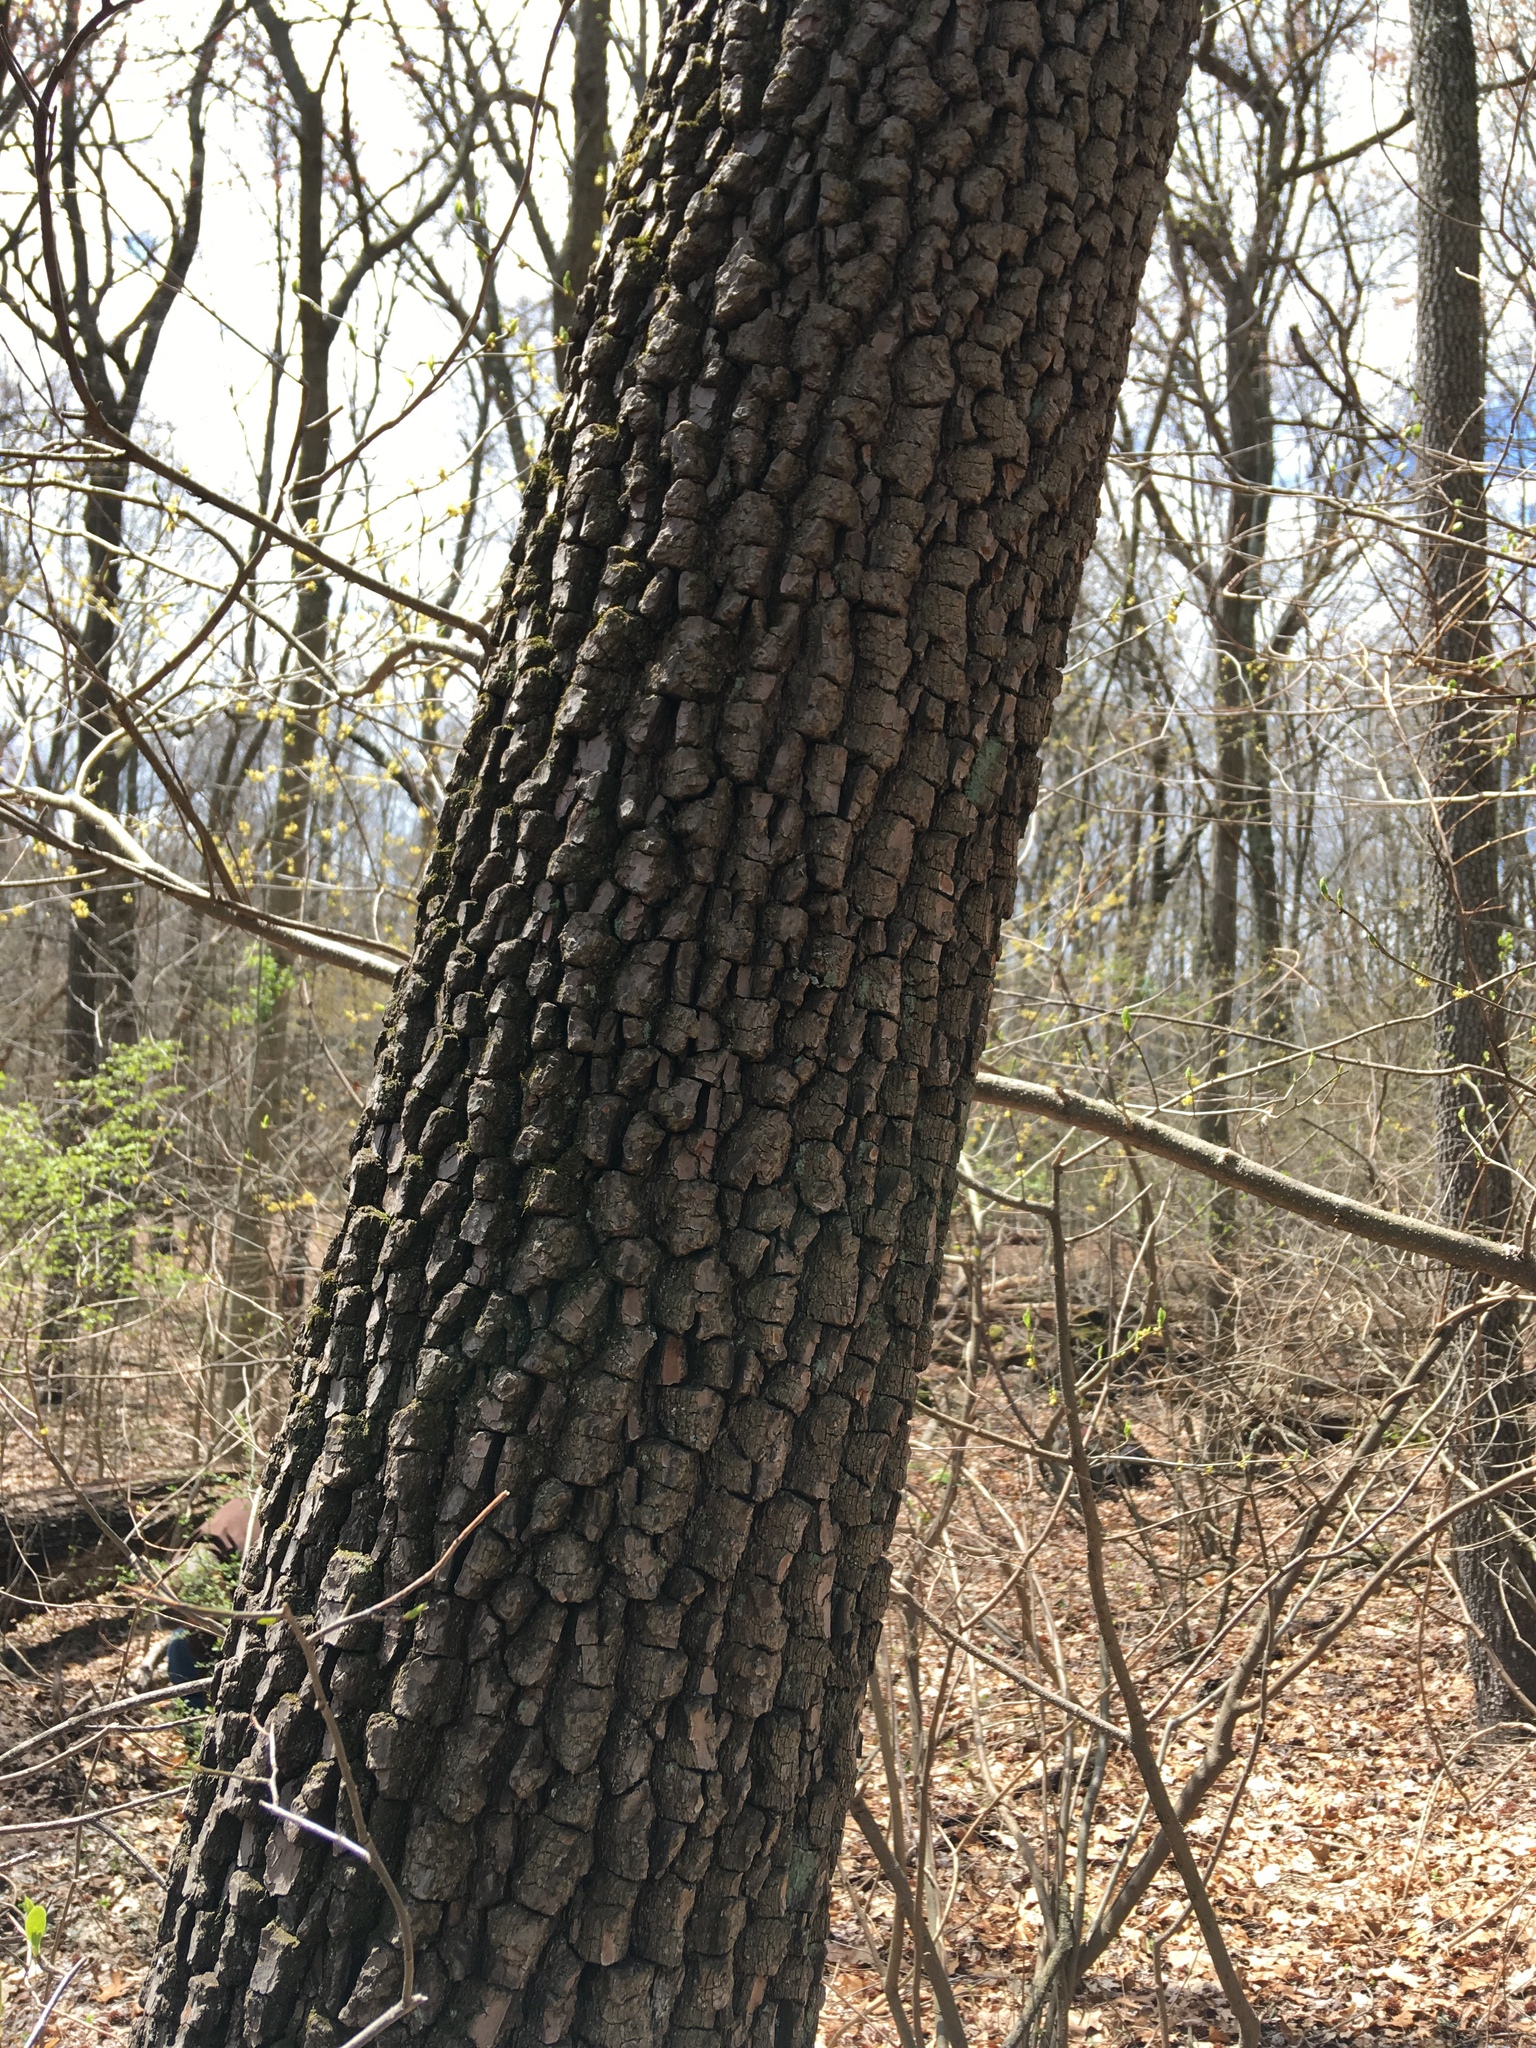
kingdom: Plantae
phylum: Tracheophyta
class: Magnoliopsida
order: Ericales
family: Ebenaceae
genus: Diospyros
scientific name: Diospyros virginiana
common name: Persimmon
